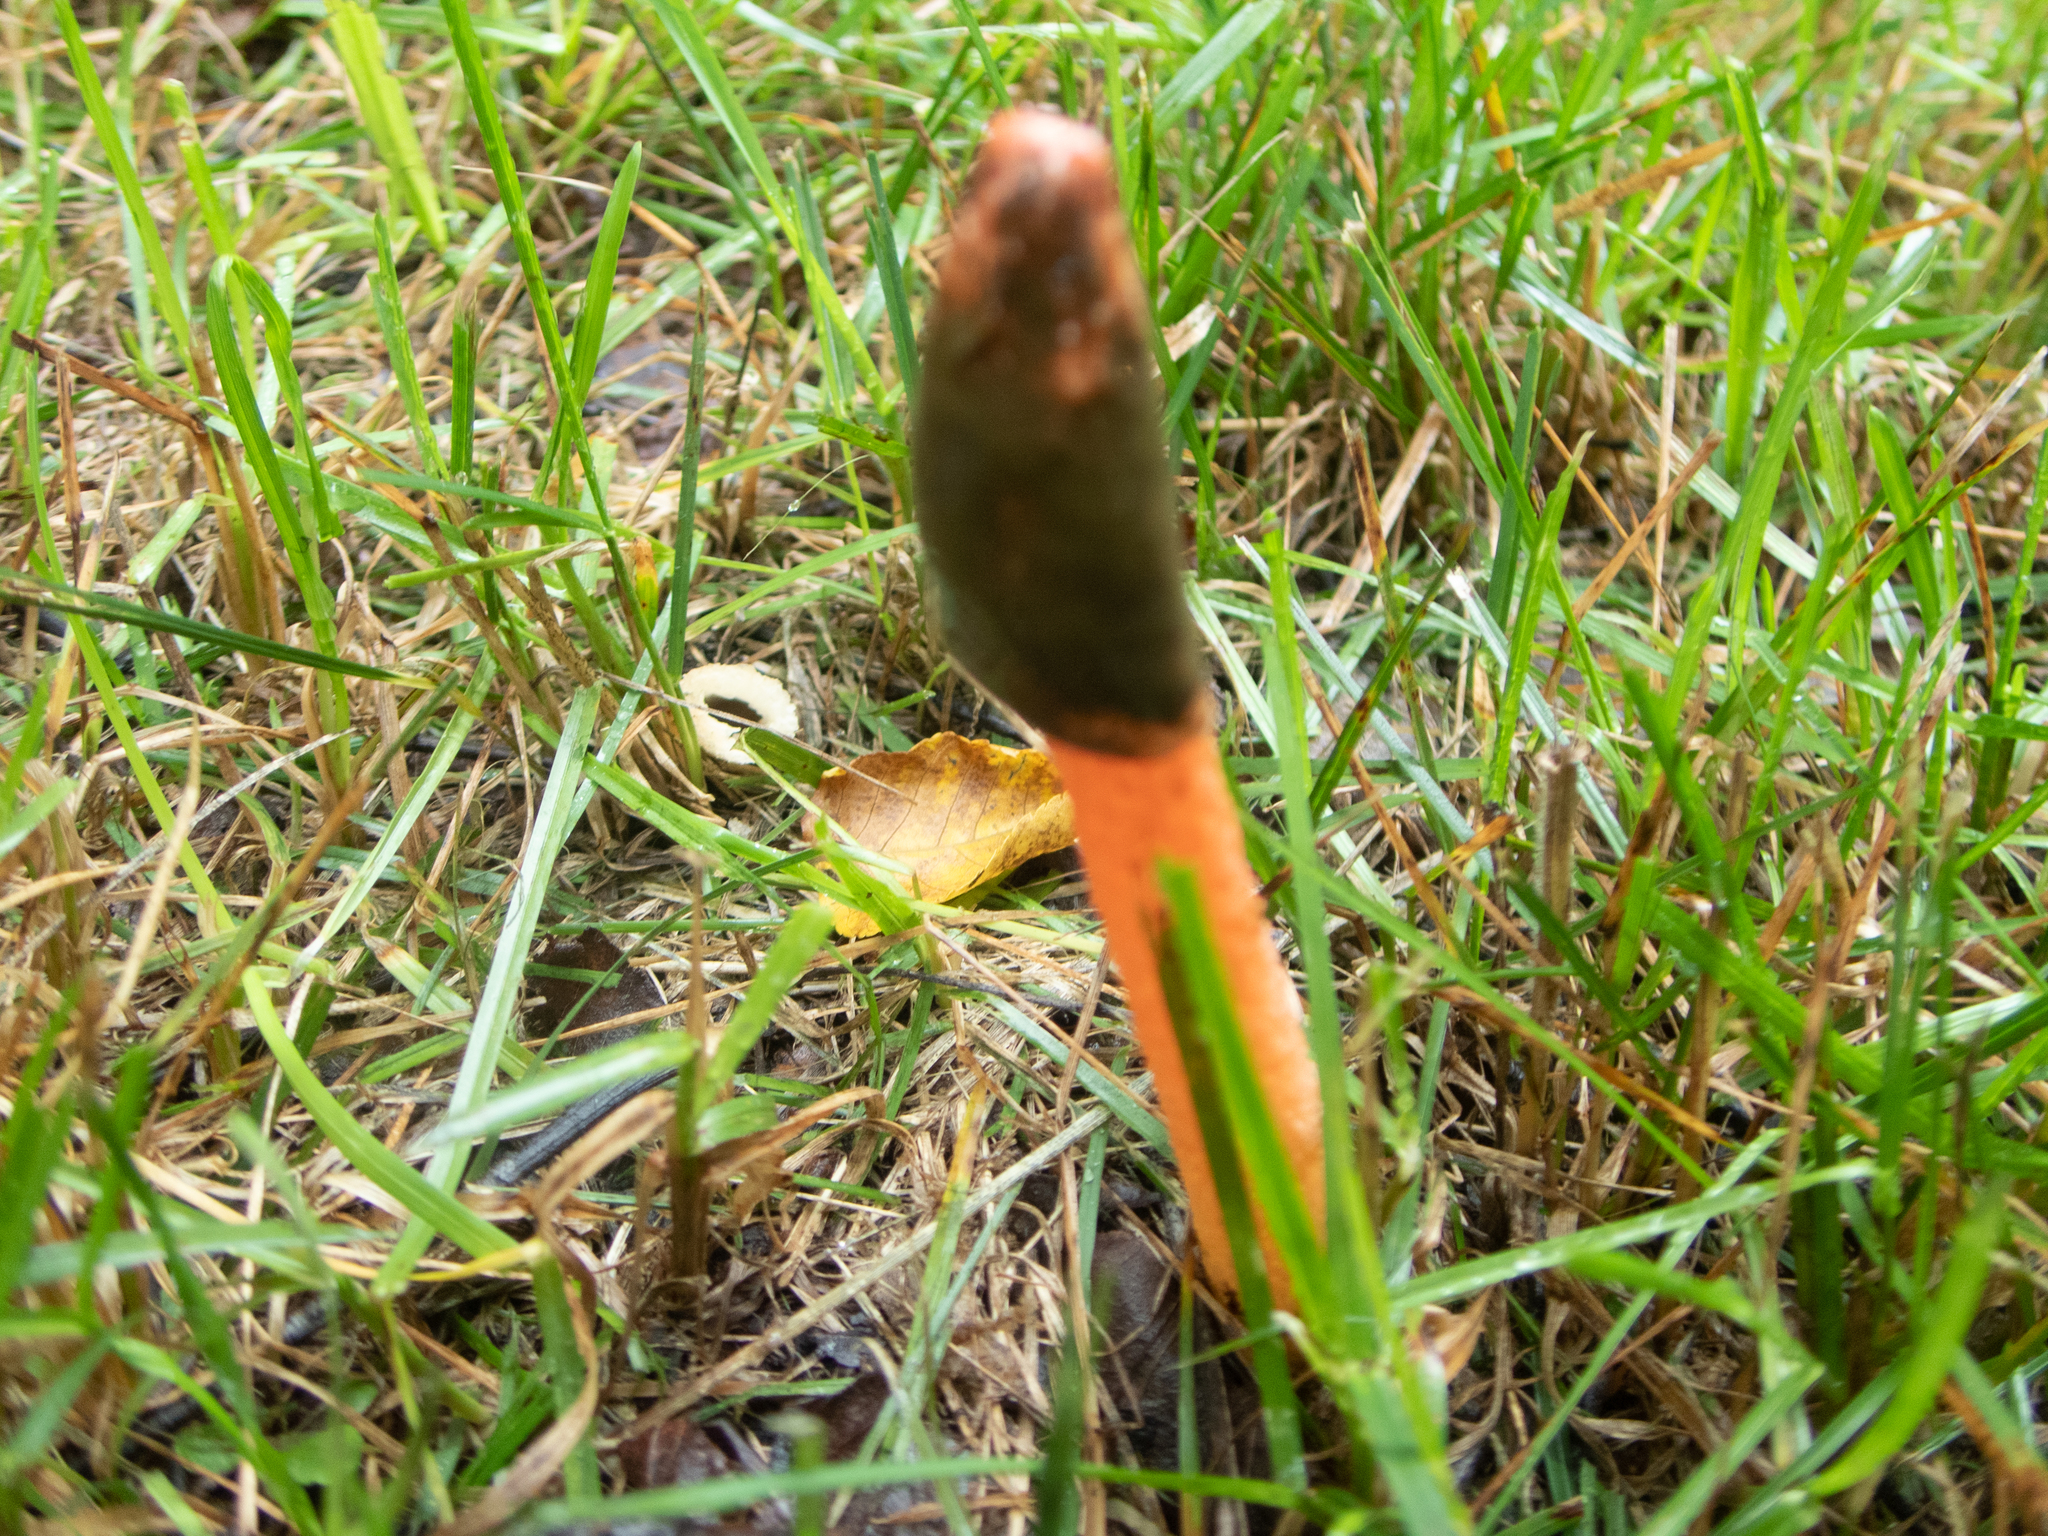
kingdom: Fungi
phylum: Basidiomycota
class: Agaricomycetes
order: Phallales
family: Phallaceae
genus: Phallus
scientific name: Phallus rugulosus
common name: Wrinkly stinkhorn
